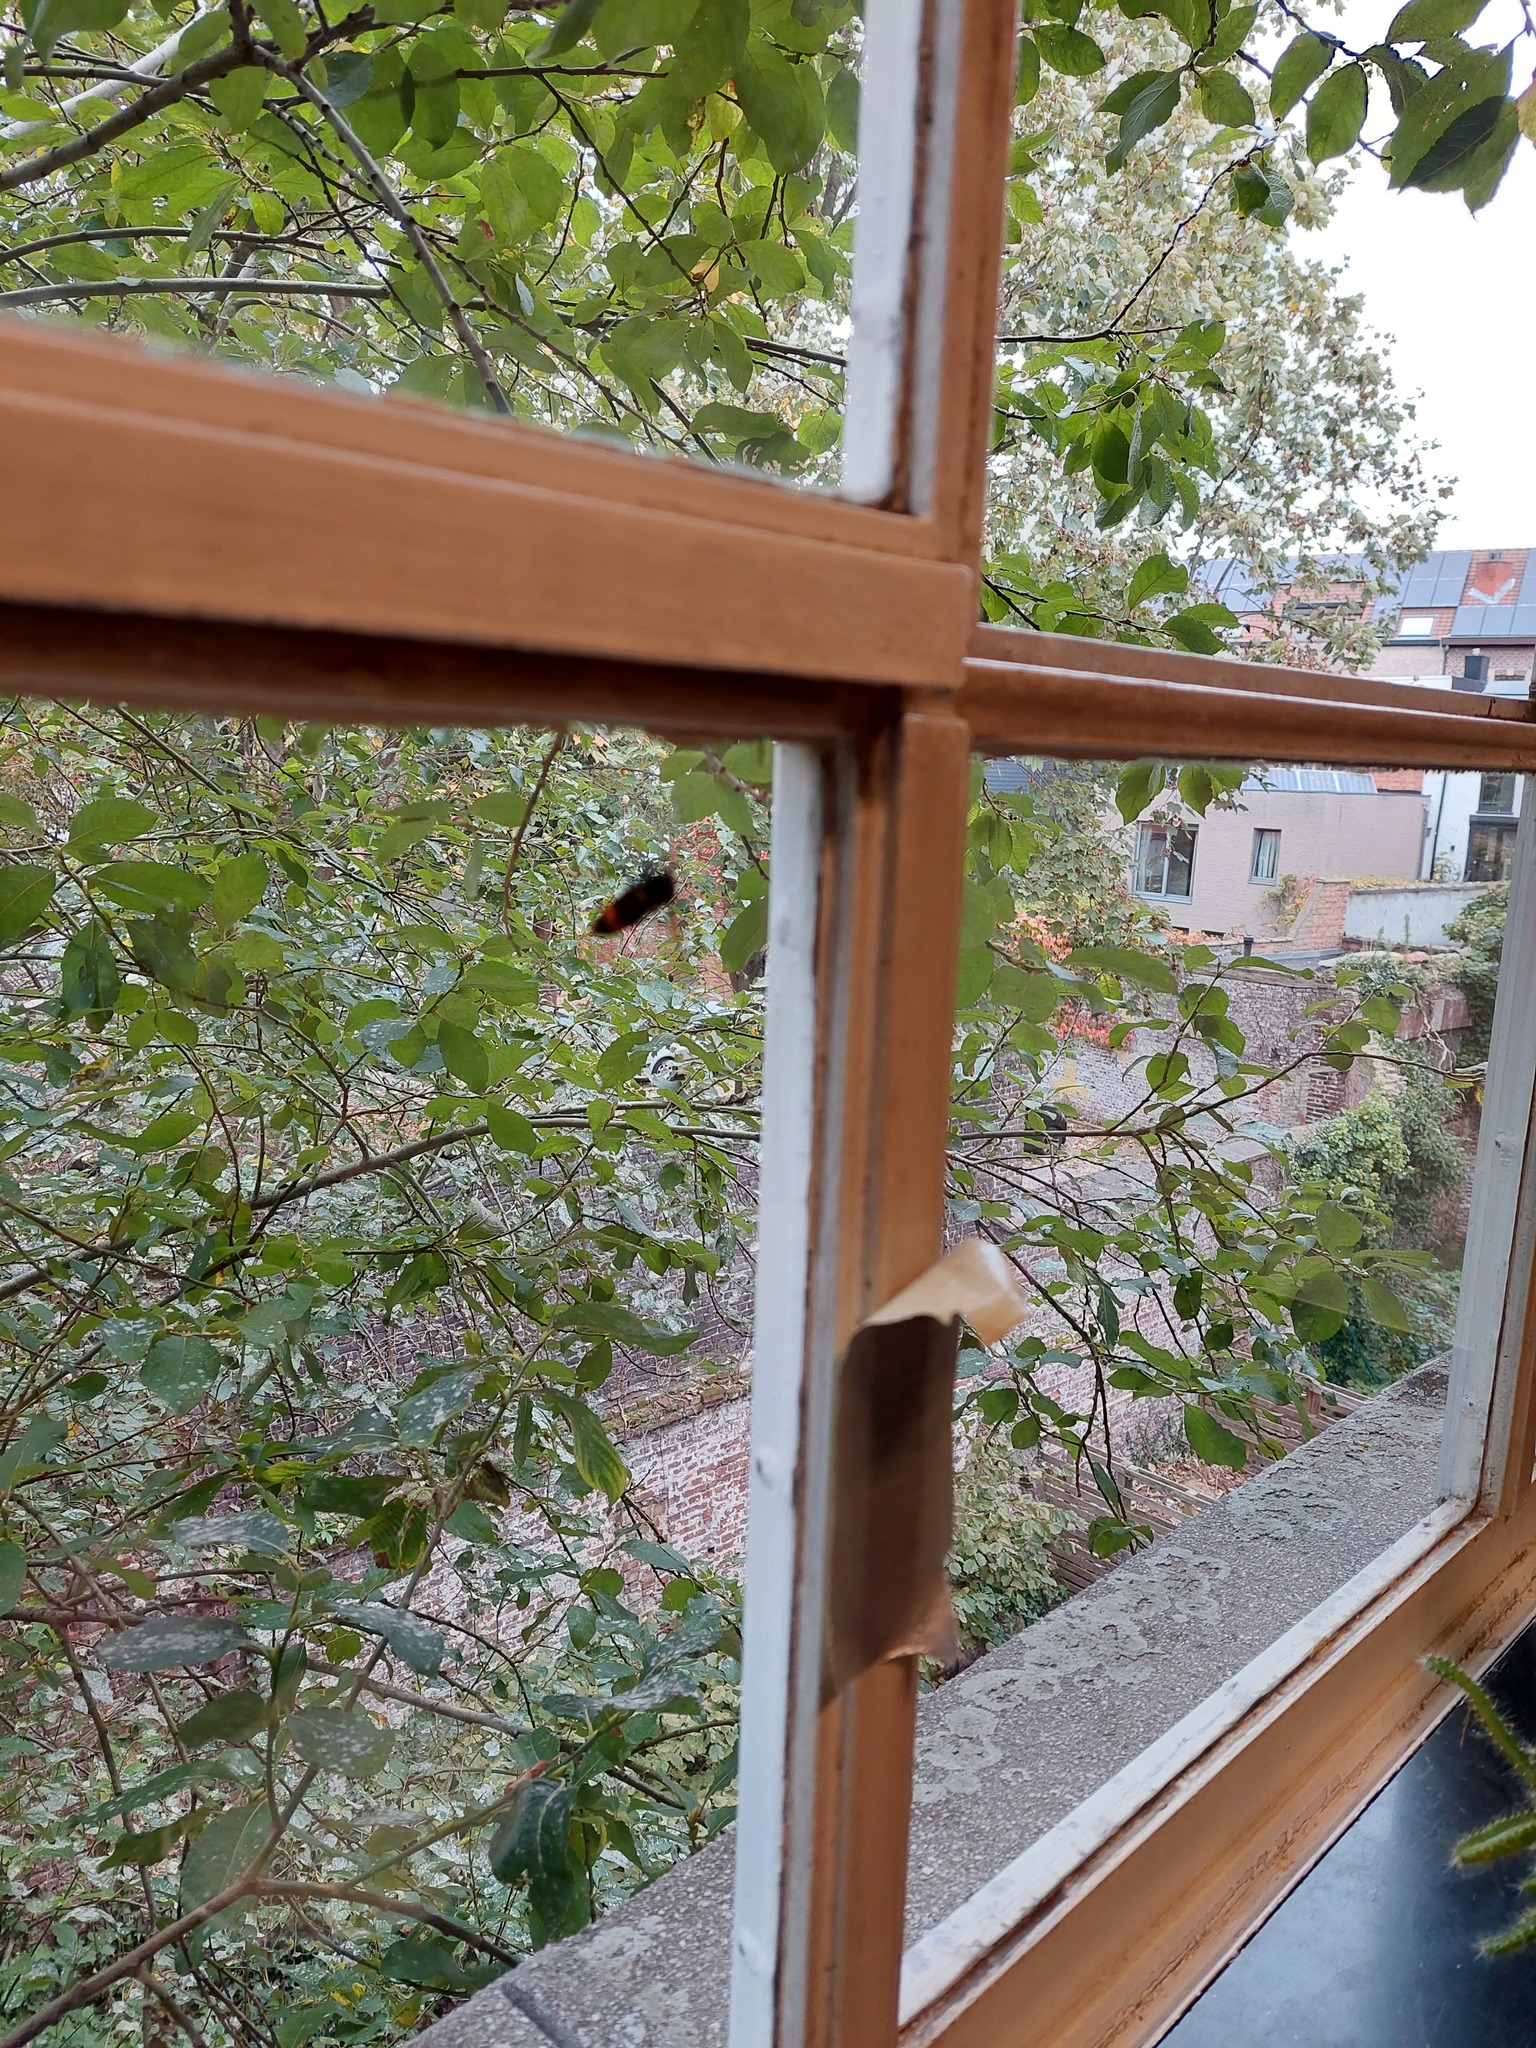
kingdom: Animalia
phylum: Arthropoda
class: Insecta
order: Hymenoptera
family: Vespidae
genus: Vespa
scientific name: Vespa velutina
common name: Asian hornet
